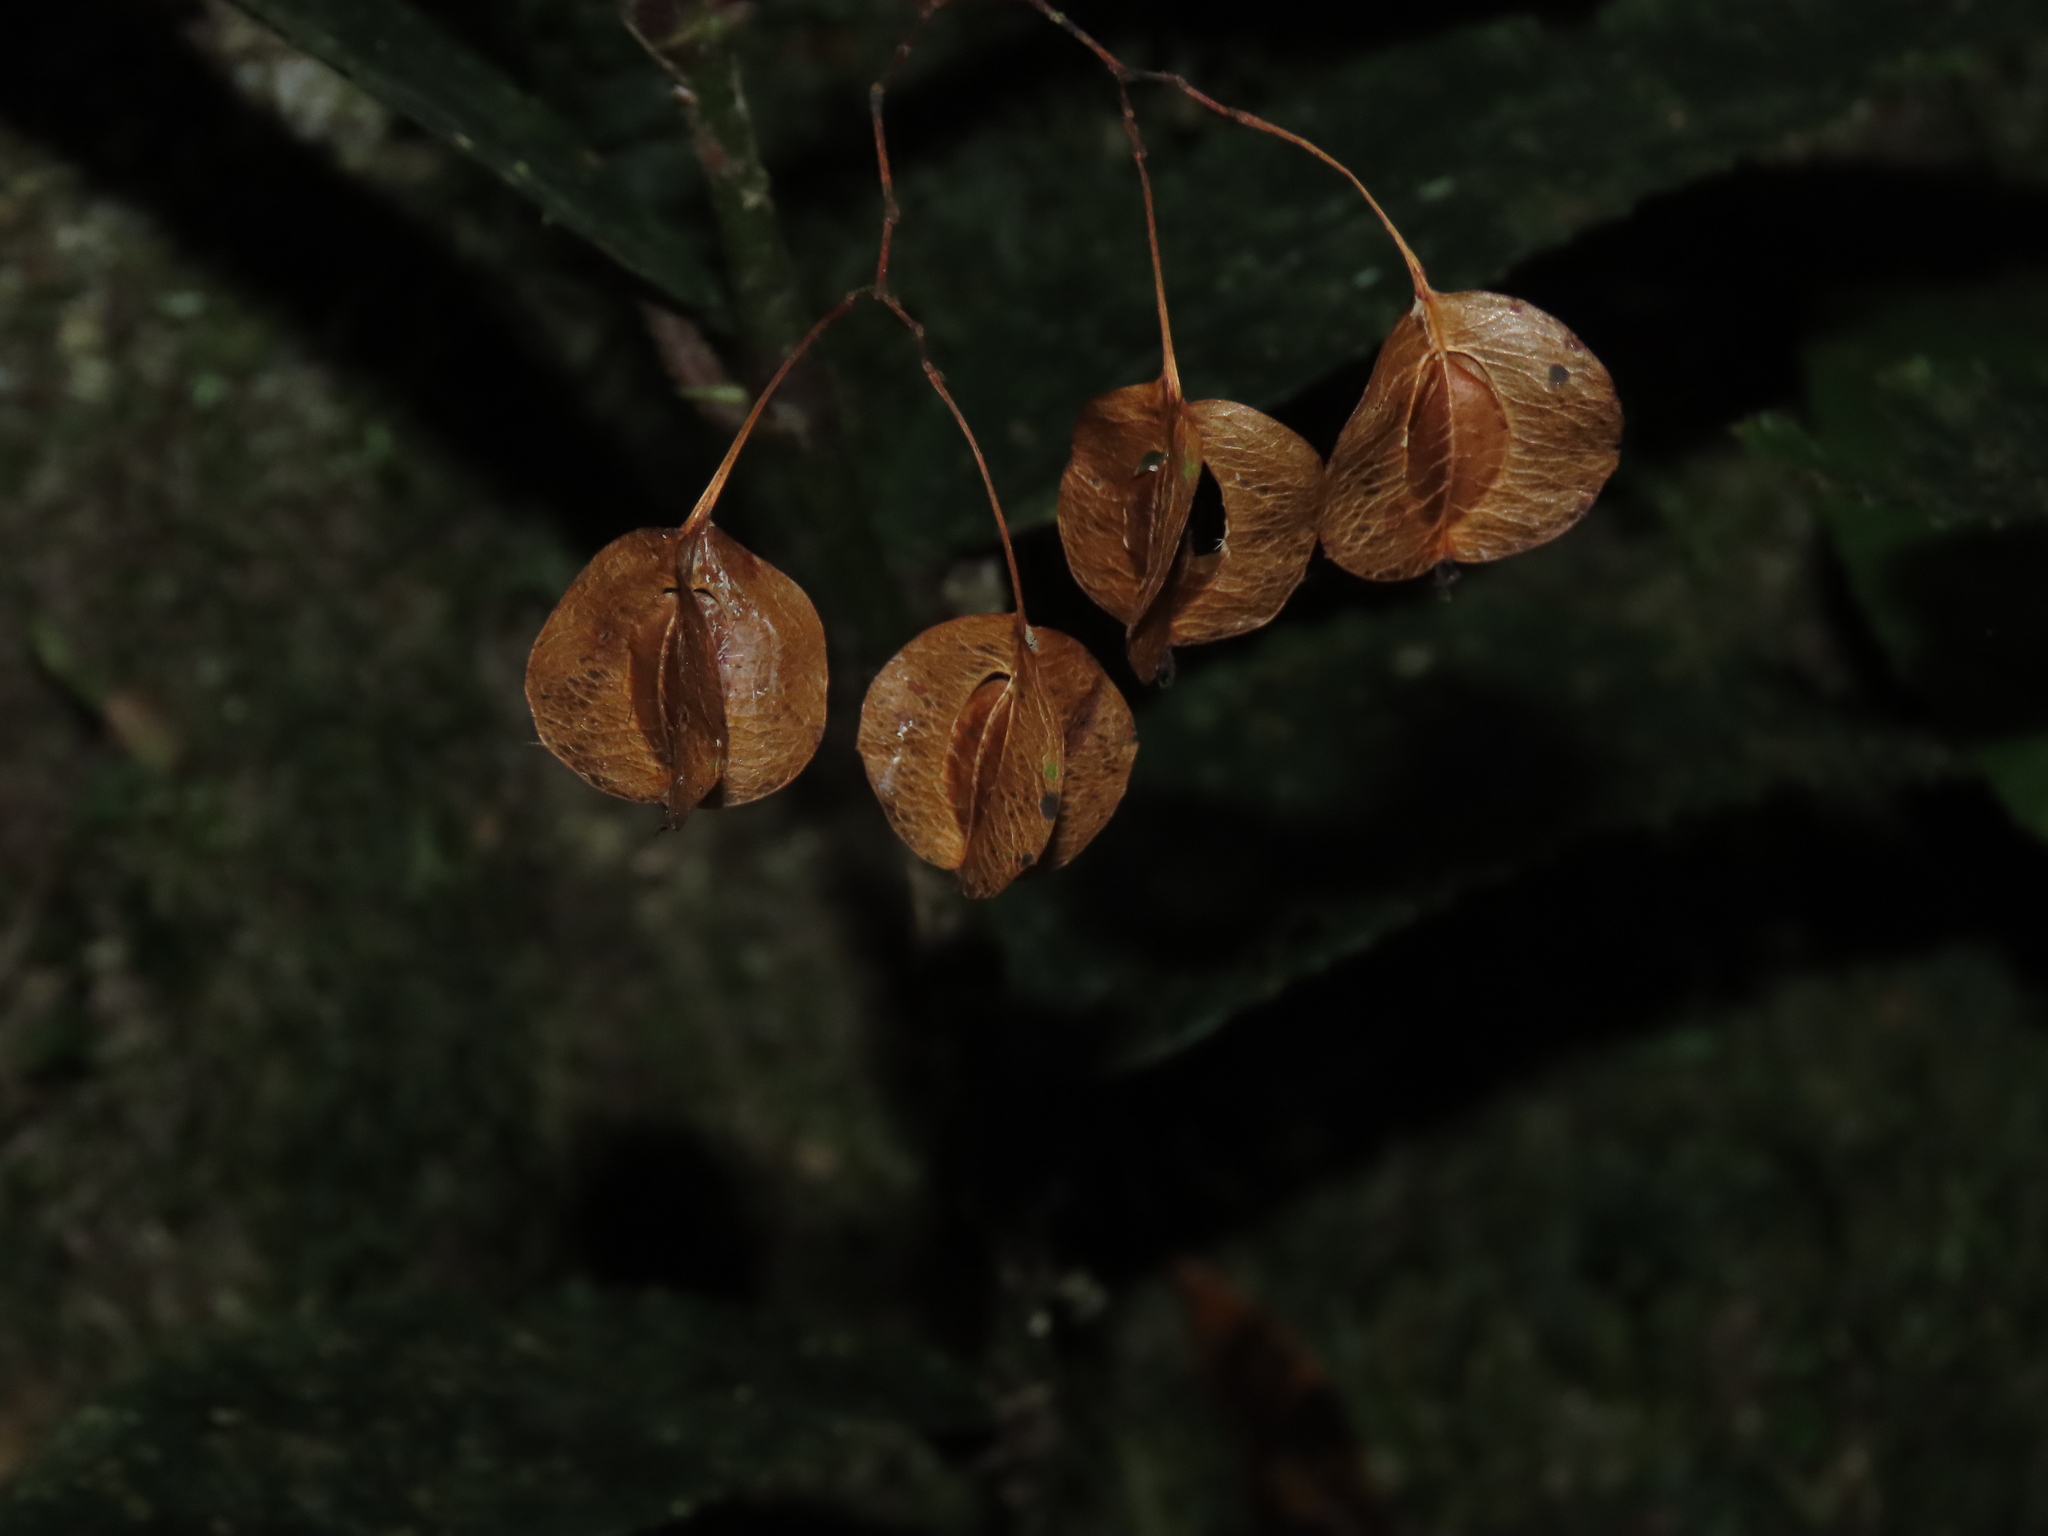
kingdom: Plantae
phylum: Tracheophyta
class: Magnoliopsida
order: Cucurbitales
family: Begoniaceae
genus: Begonia
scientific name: Begonia bidentata
